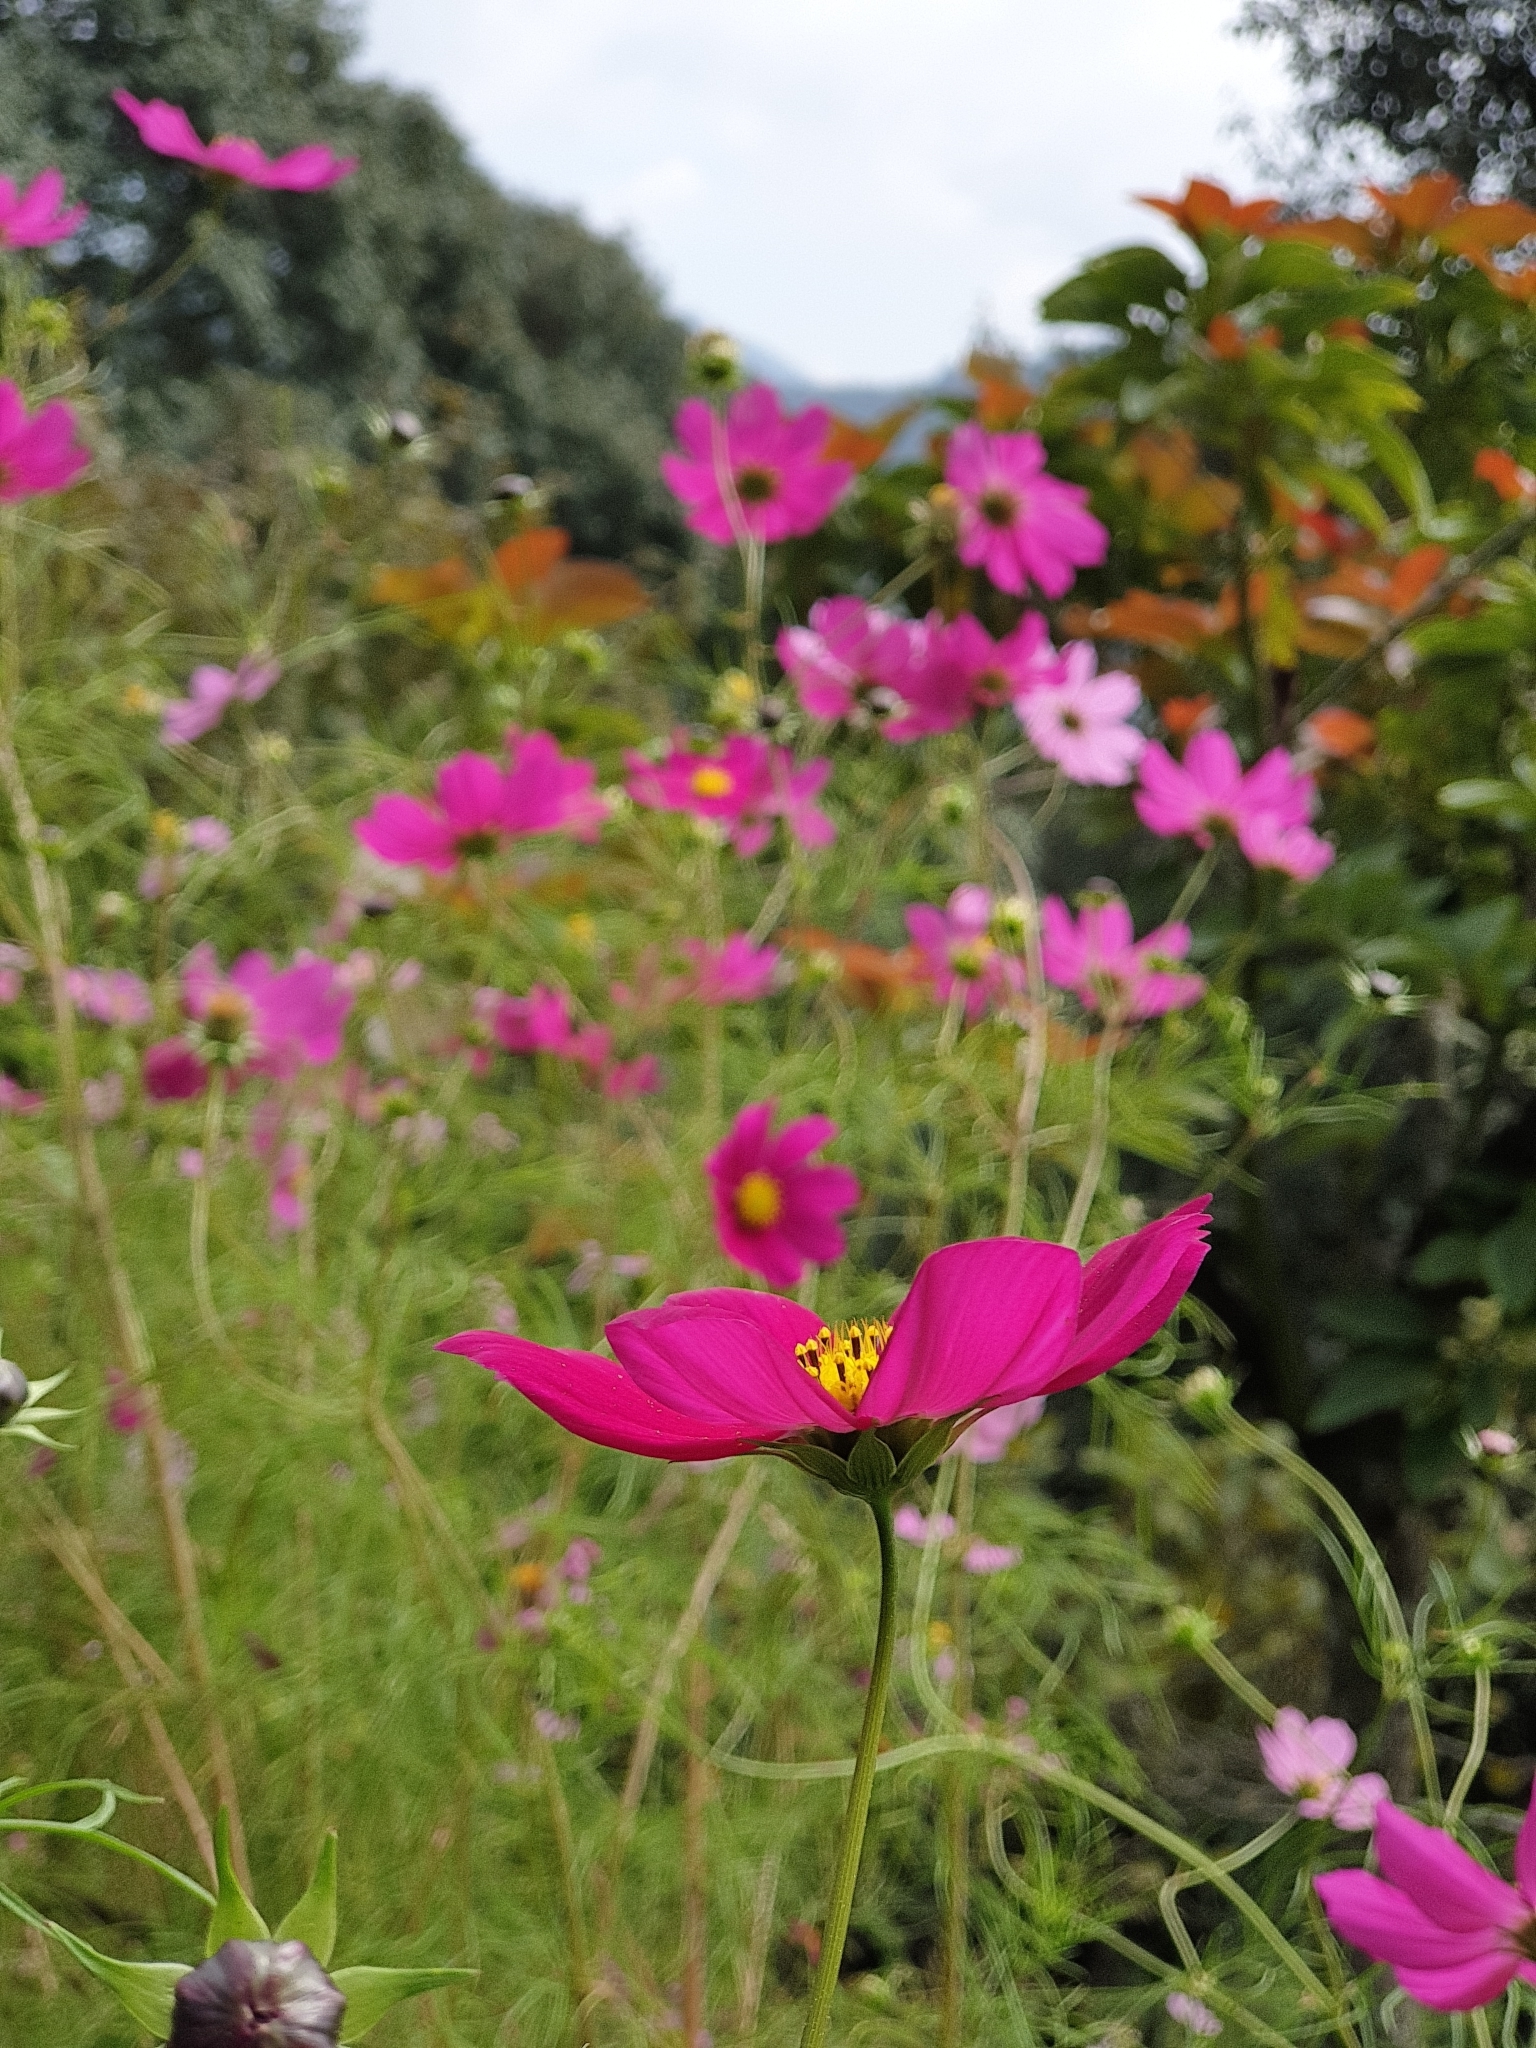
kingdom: Plantae
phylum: Tracheophyta
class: Magnoliopsida
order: Asterales
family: Asteraceae
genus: Cosmos
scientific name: Cosmos bipinnatus
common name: Garden cosmos
